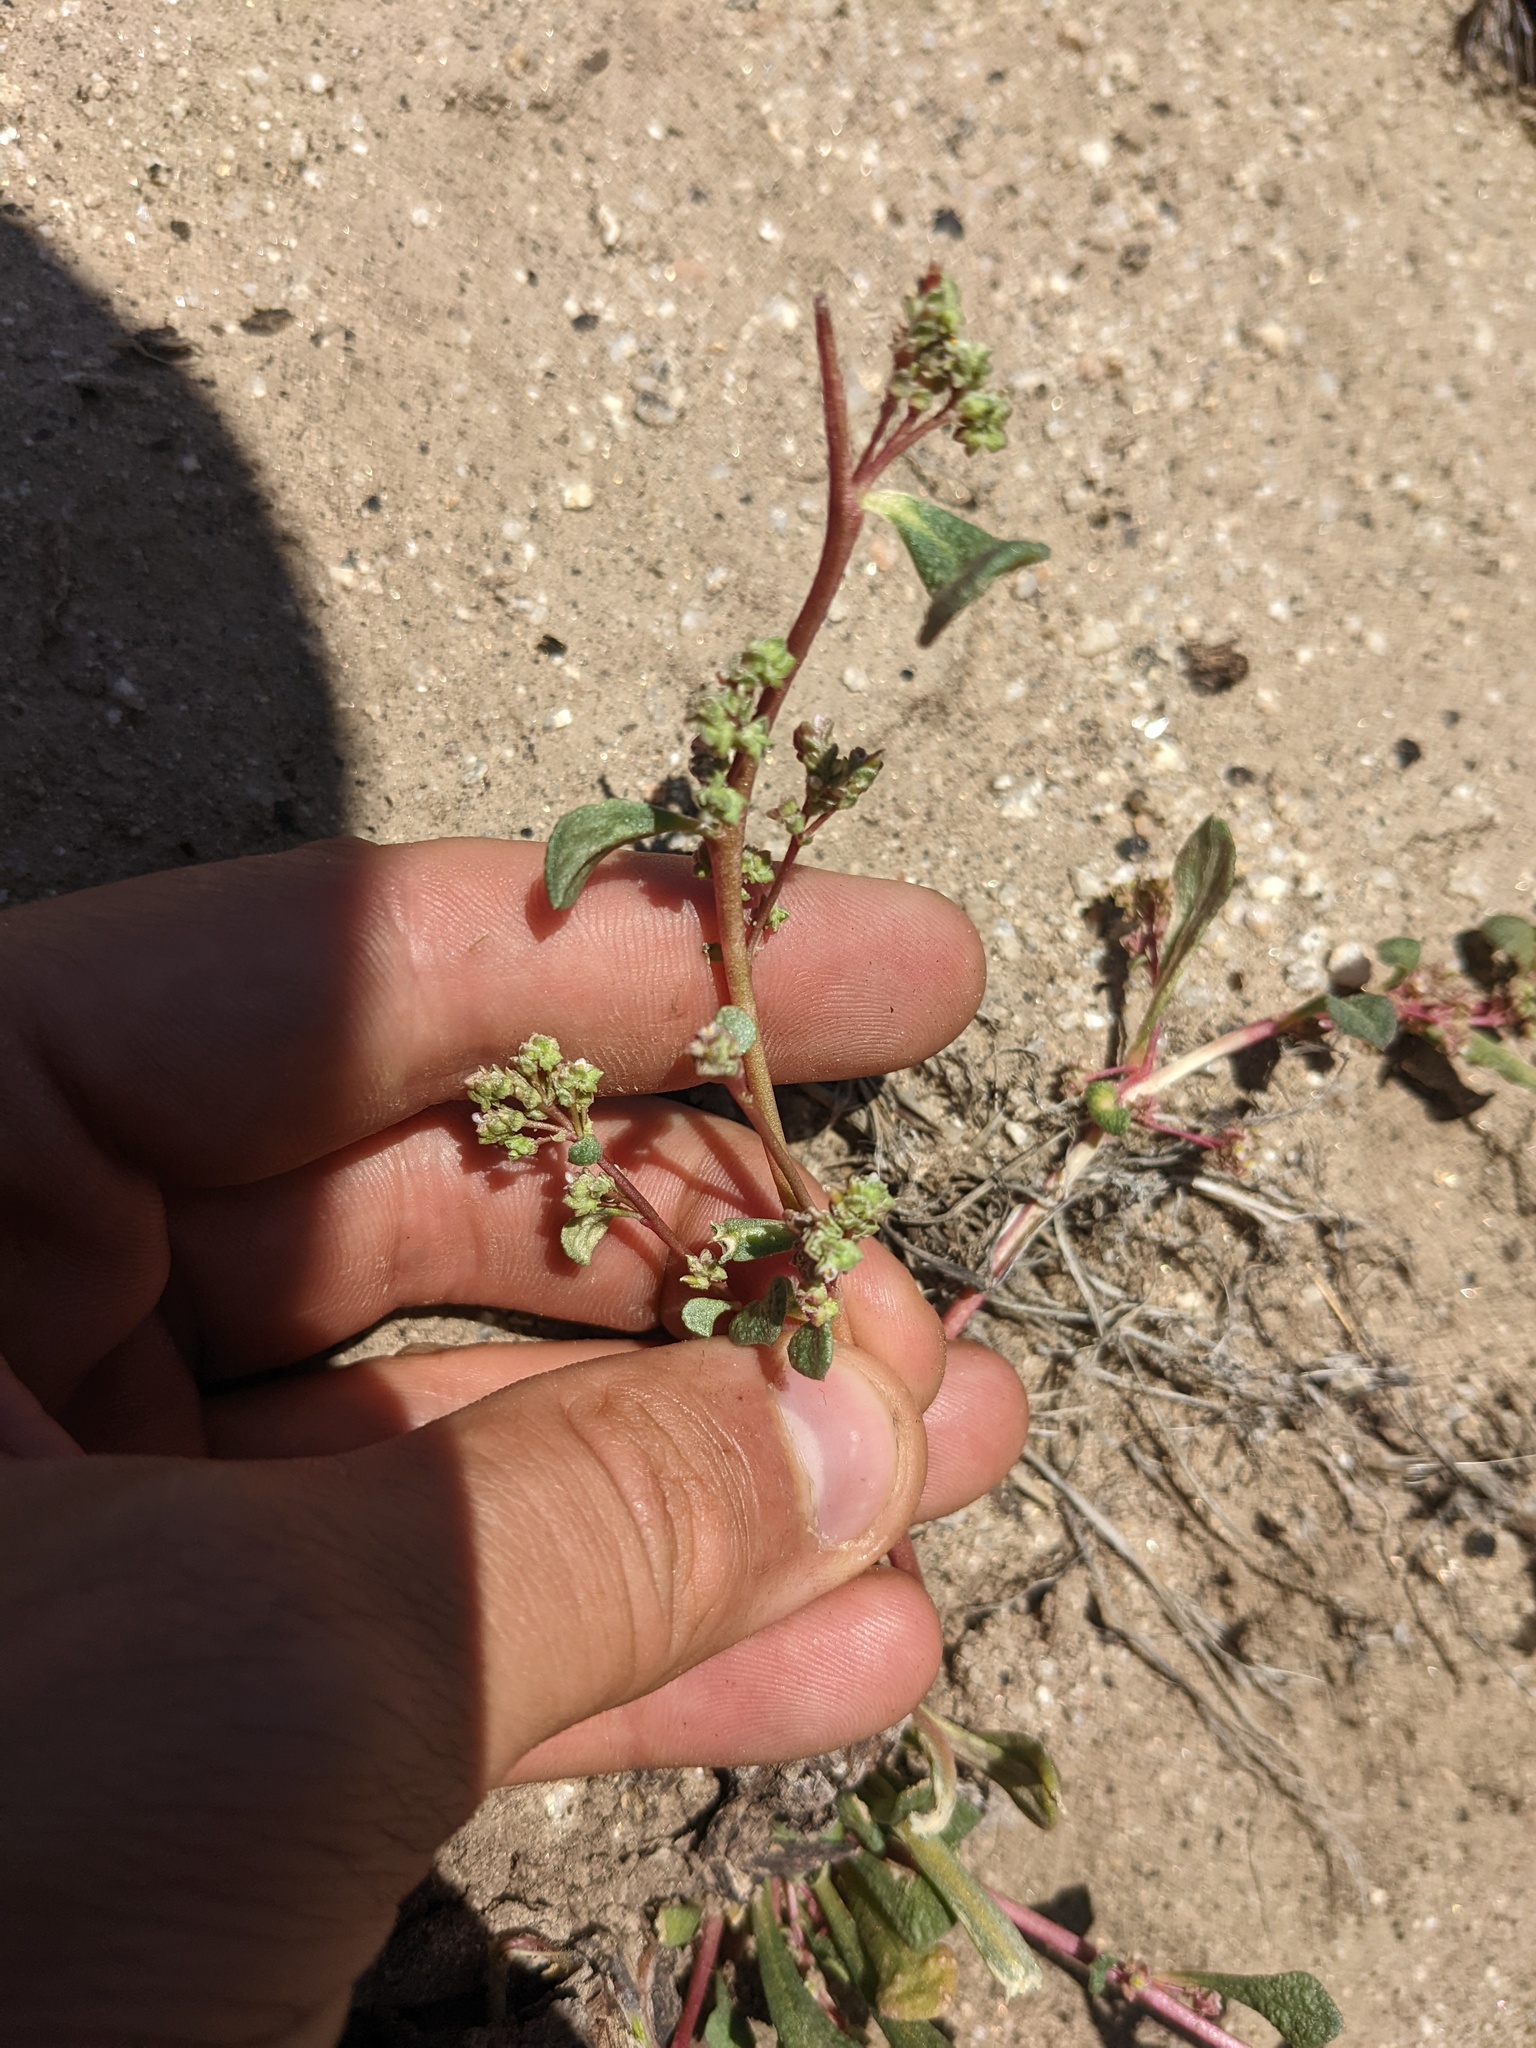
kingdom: Plantae
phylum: Tracheophyta
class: Magnoliopsida
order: Caryophyllales
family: Montiaceae
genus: Calyptridium
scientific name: Calyptridium monandrum
